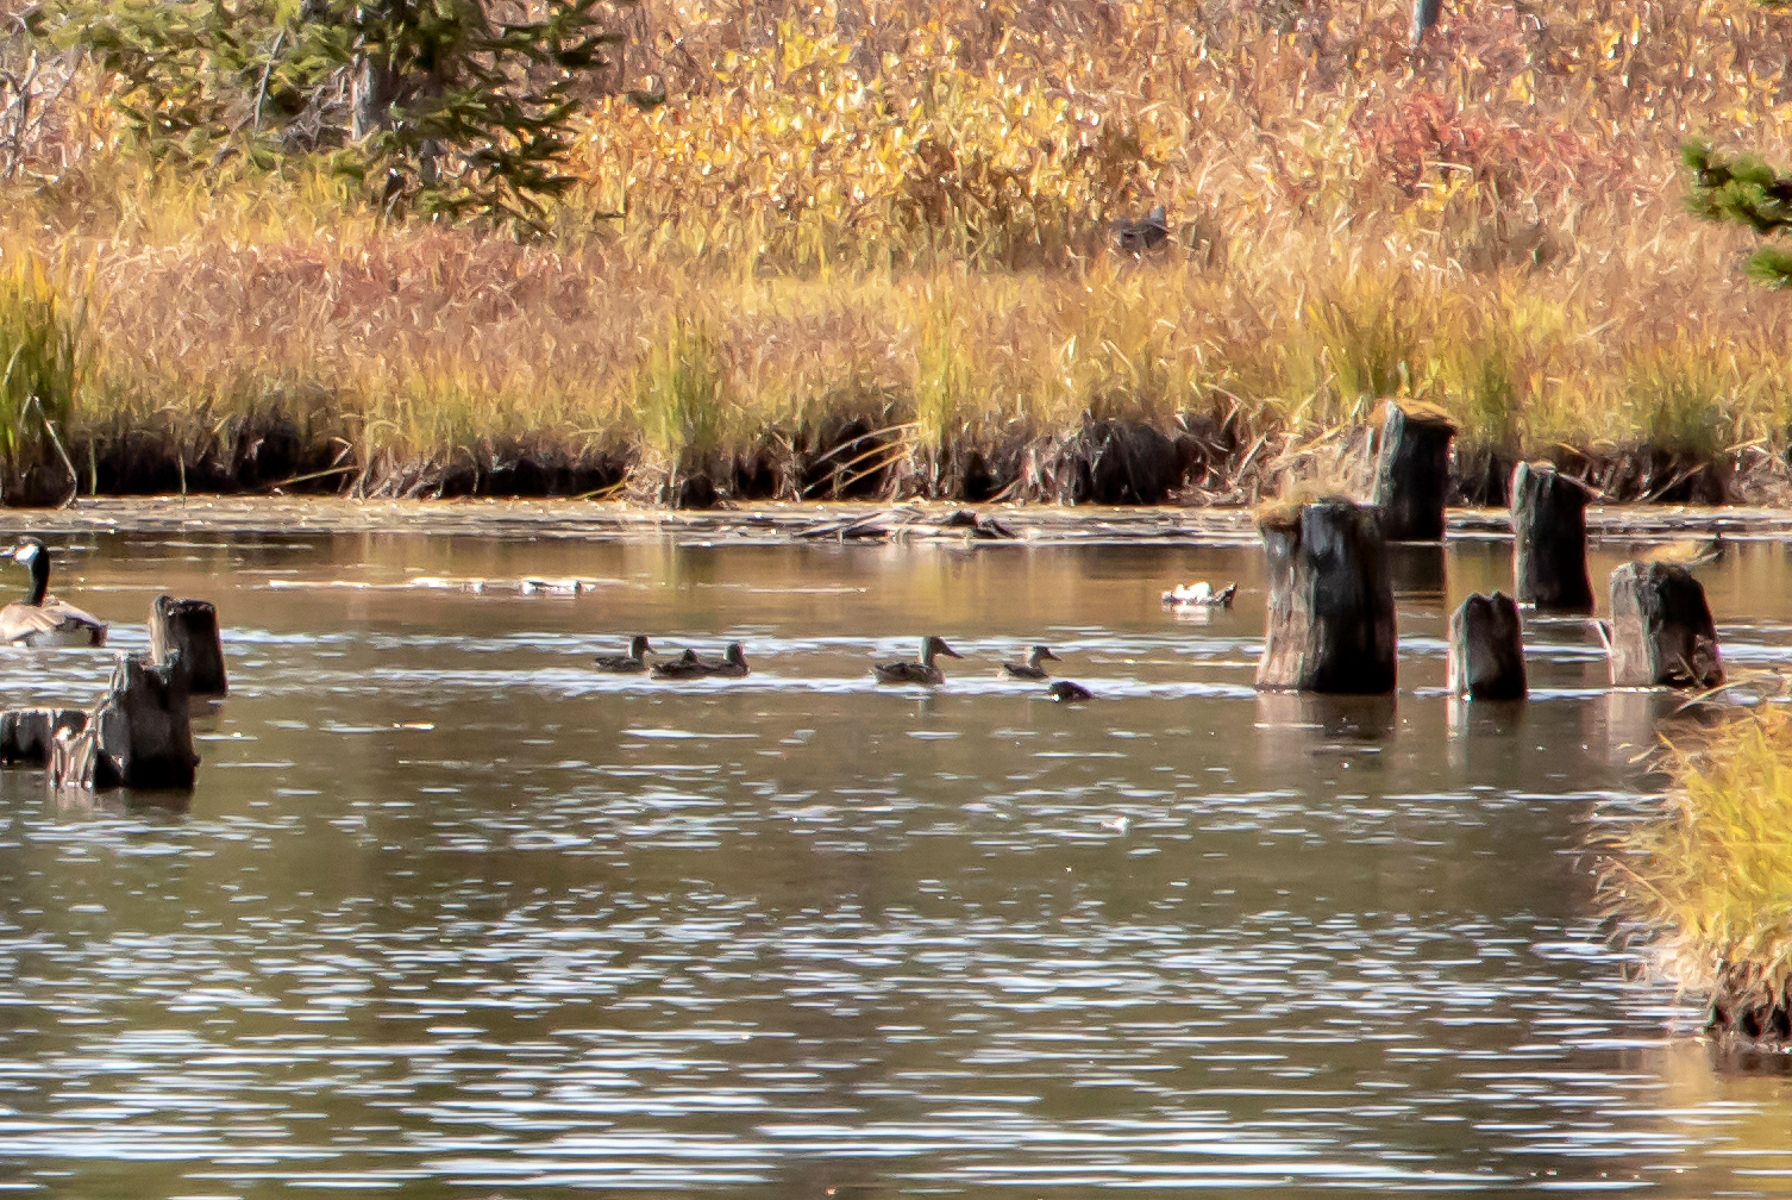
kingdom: Animalia
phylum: Chordata
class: Aves
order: Anseriformes
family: Anatidae
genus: Spatula
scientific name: Spatula clypeata
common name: Northern shoveler
